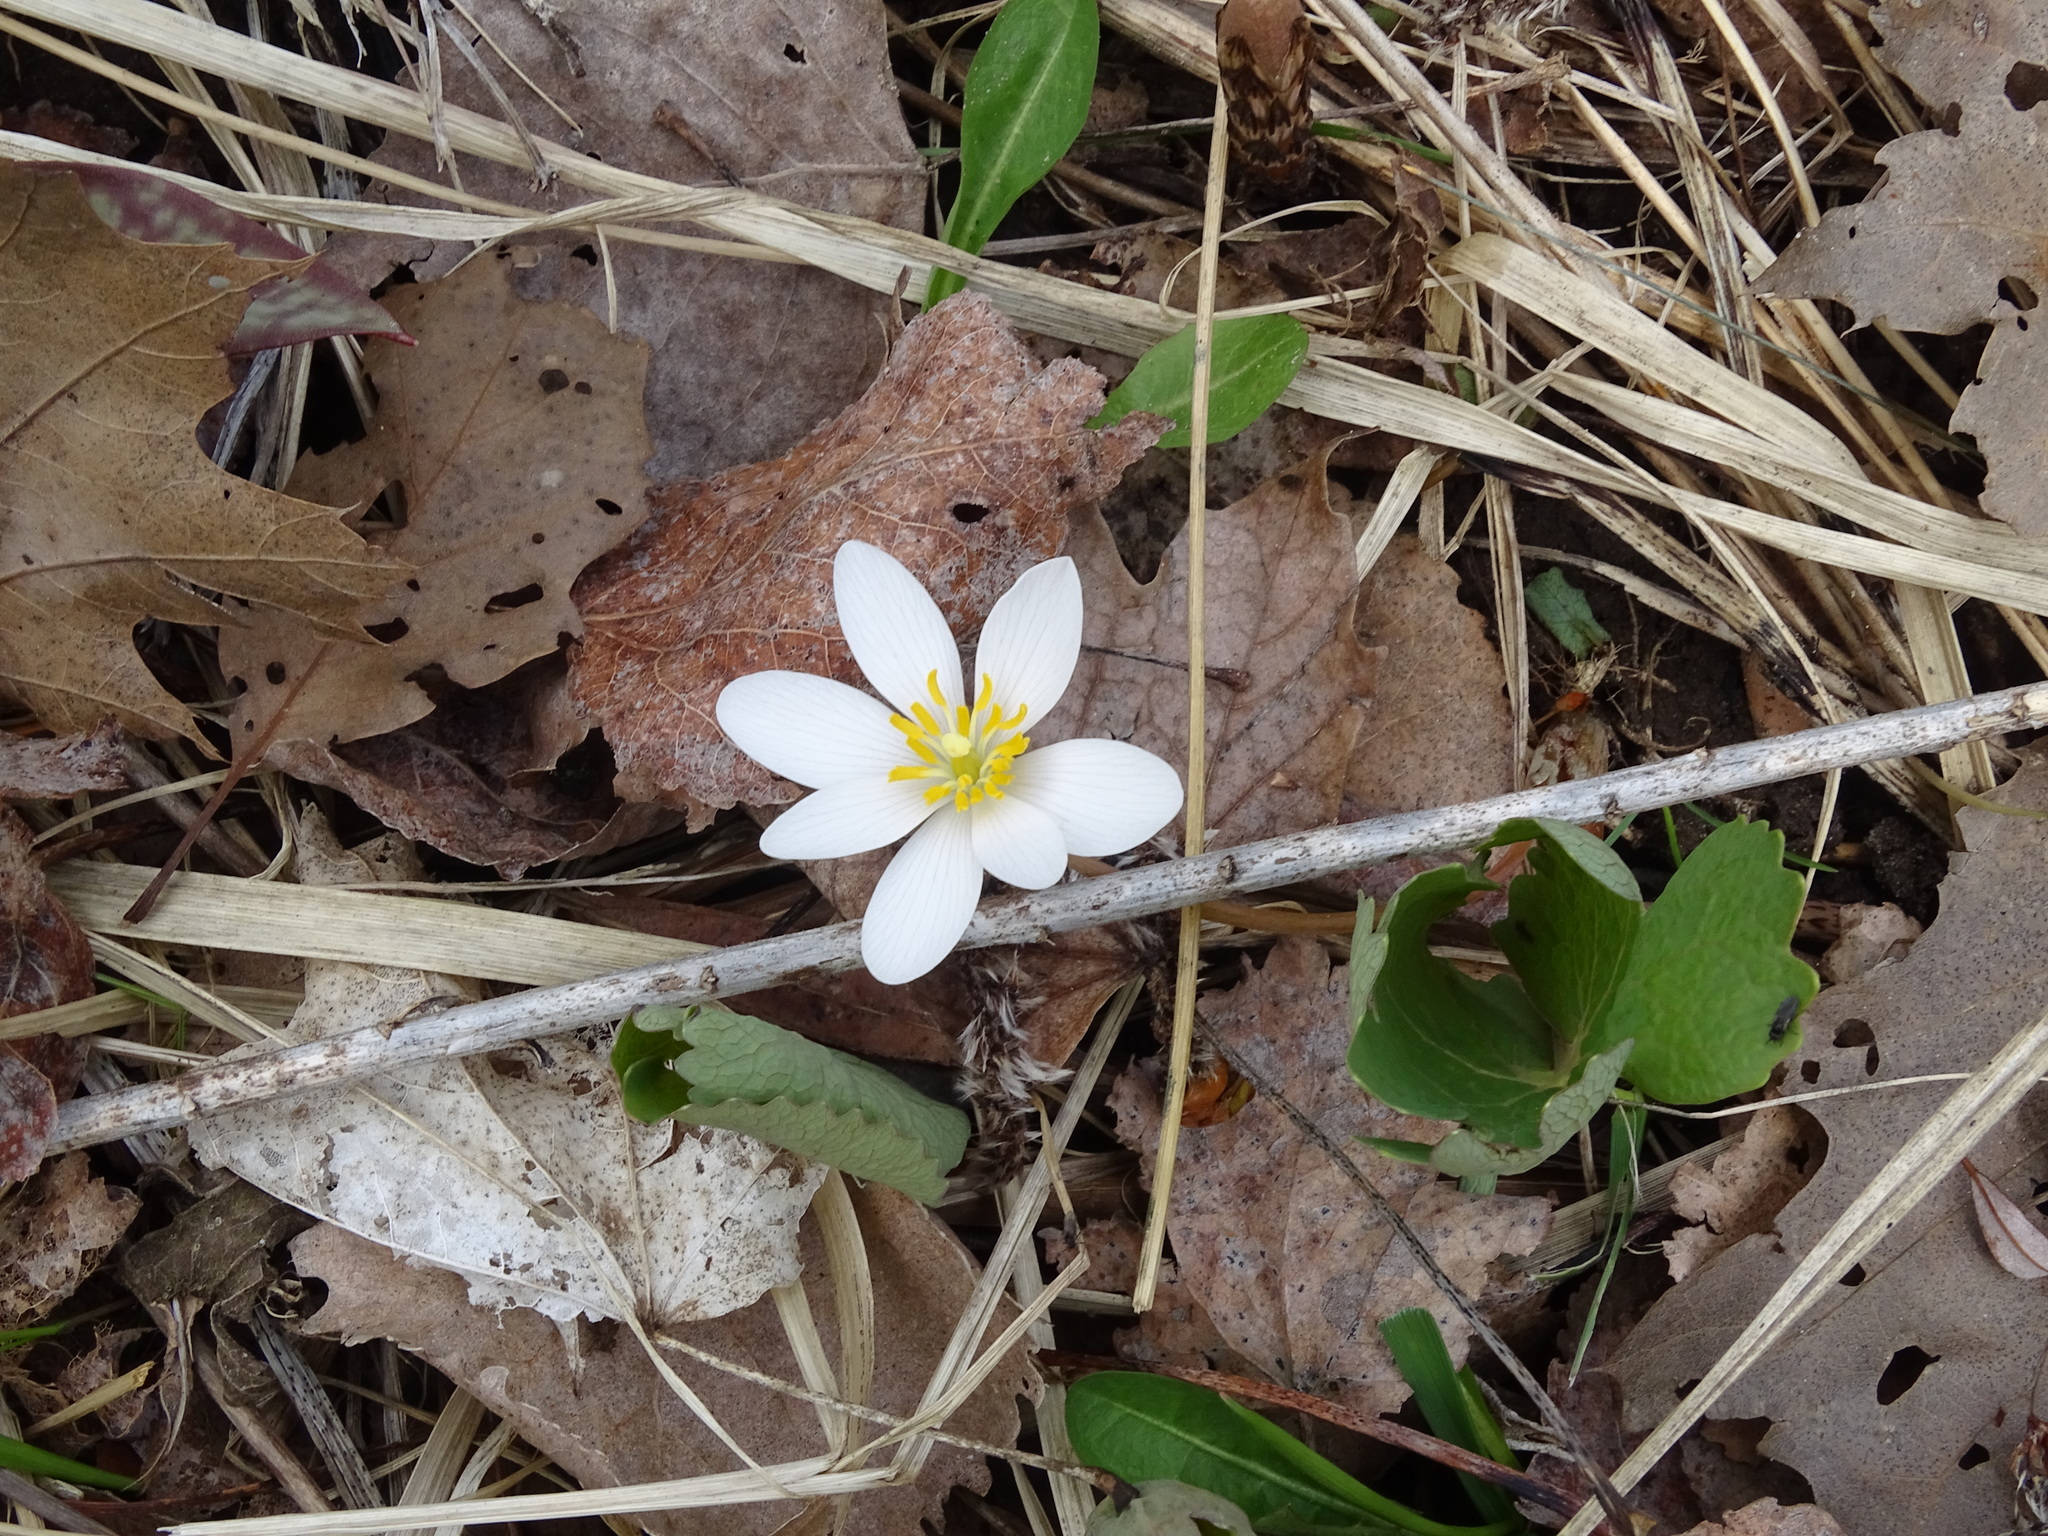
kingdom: Plantae
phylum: Tracheophyta
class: Magnoliopsida
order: Ranunculales
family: Papaveraceae
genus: Sanguinaria
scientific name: Sanguinaria canadensis
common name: Bloodroot
